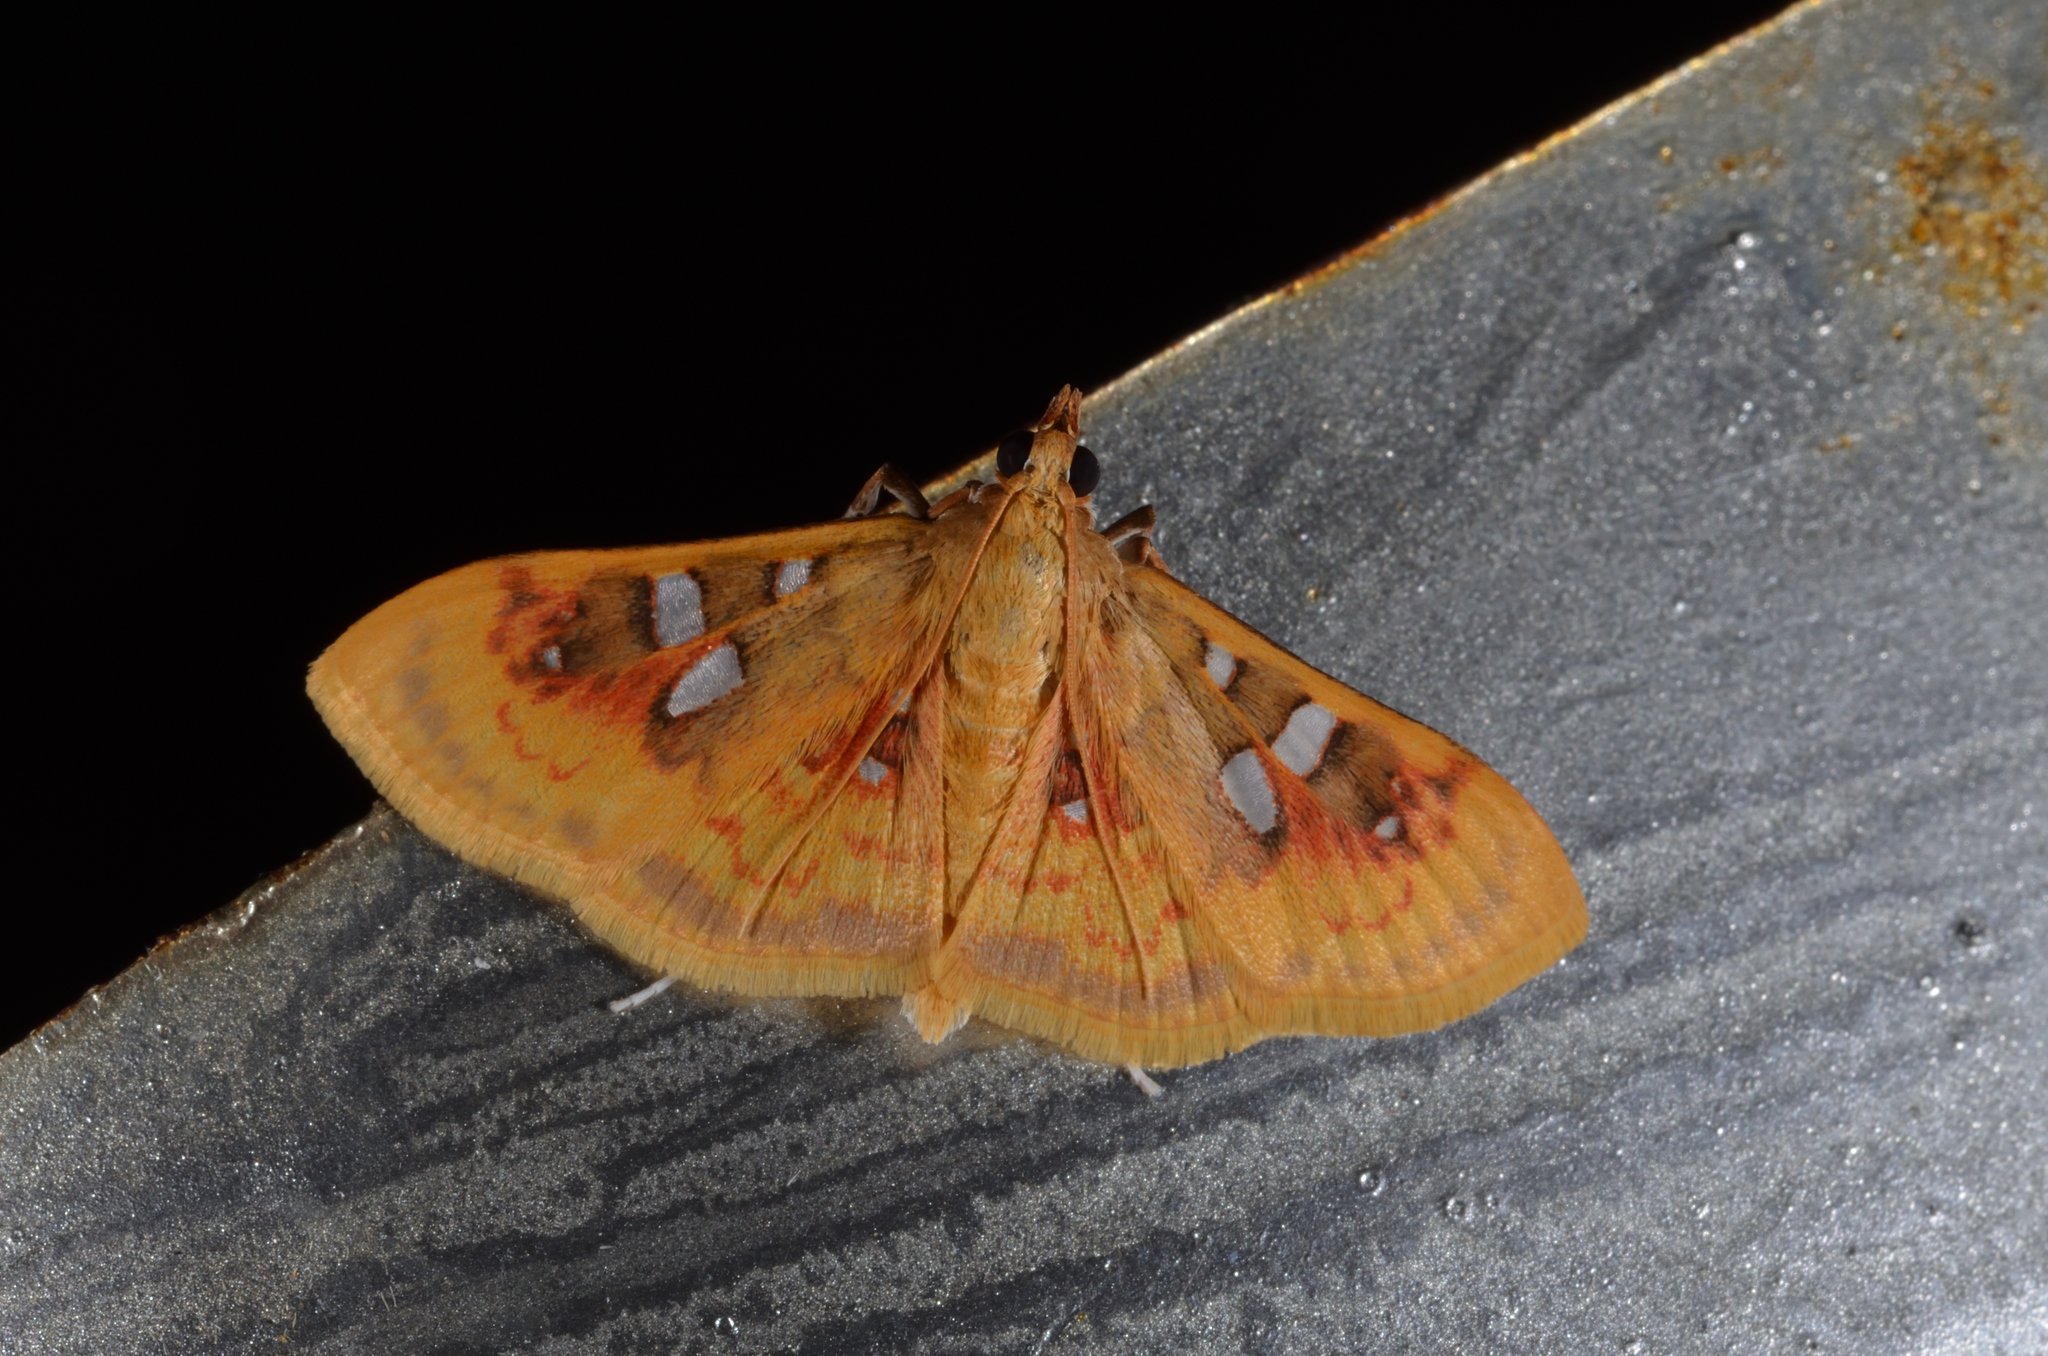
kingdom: Animalia
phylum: Arthropoda
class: Insecta
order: Lepidoptera
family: Crambidae
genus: Sameodes
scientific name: Sameodes
